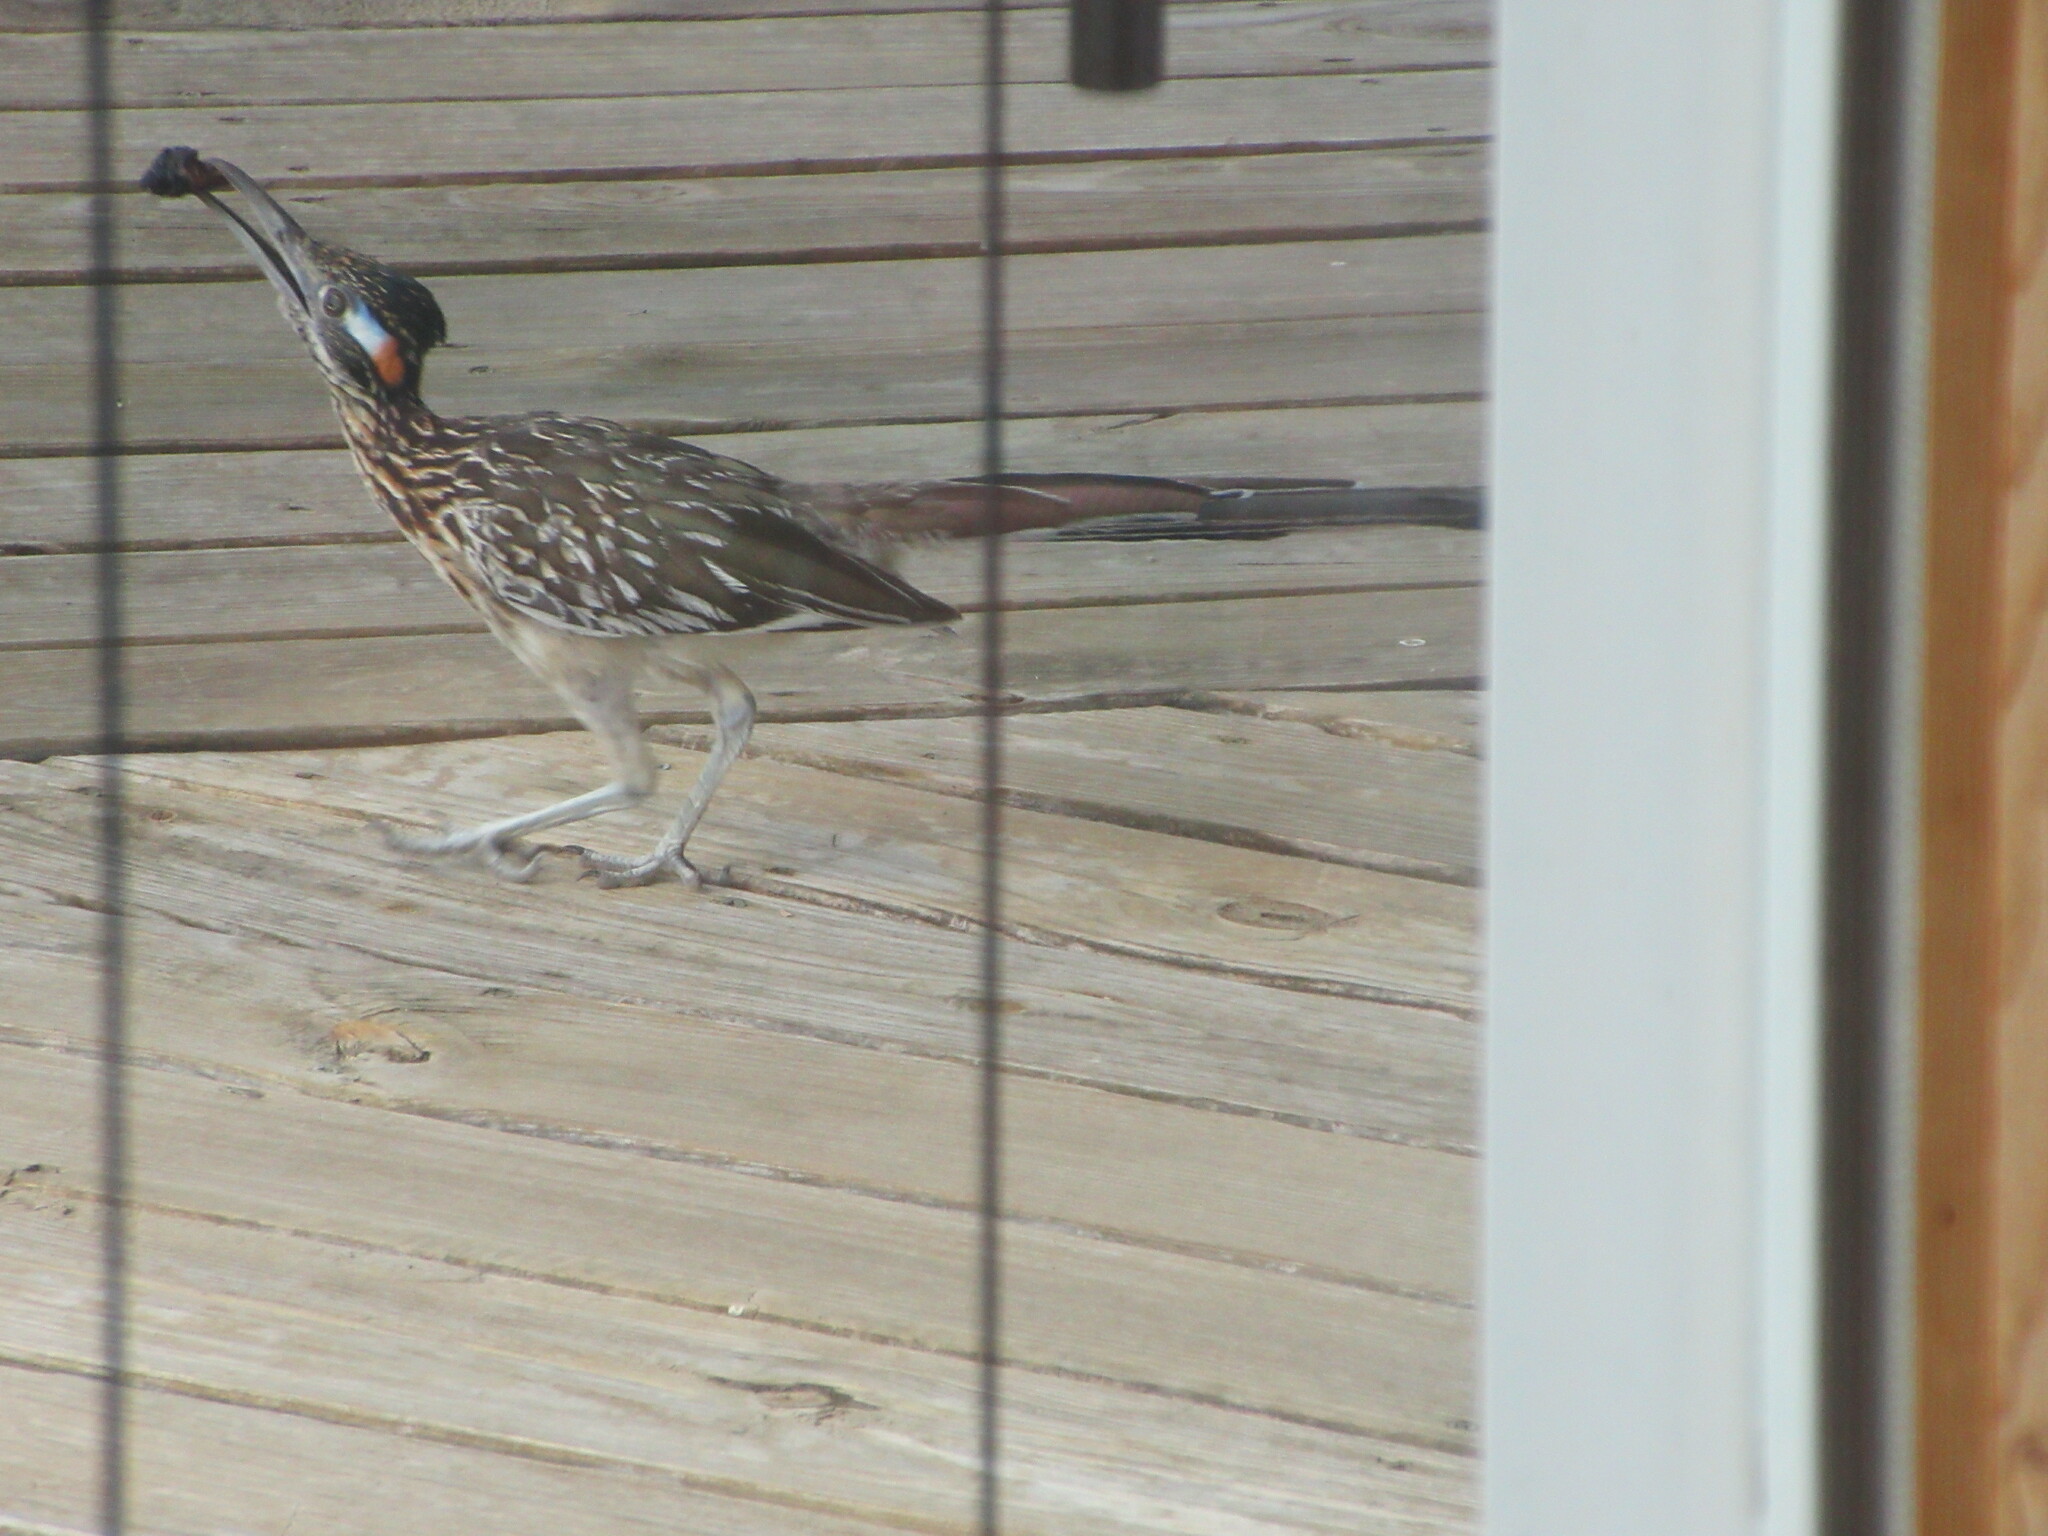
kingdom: Animalia
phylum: Chordata
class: Aves
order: Cuculiformes
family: Cuculidae
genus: Geococcyx
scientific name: Geococcyx californianus
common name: Greater roadrunner
